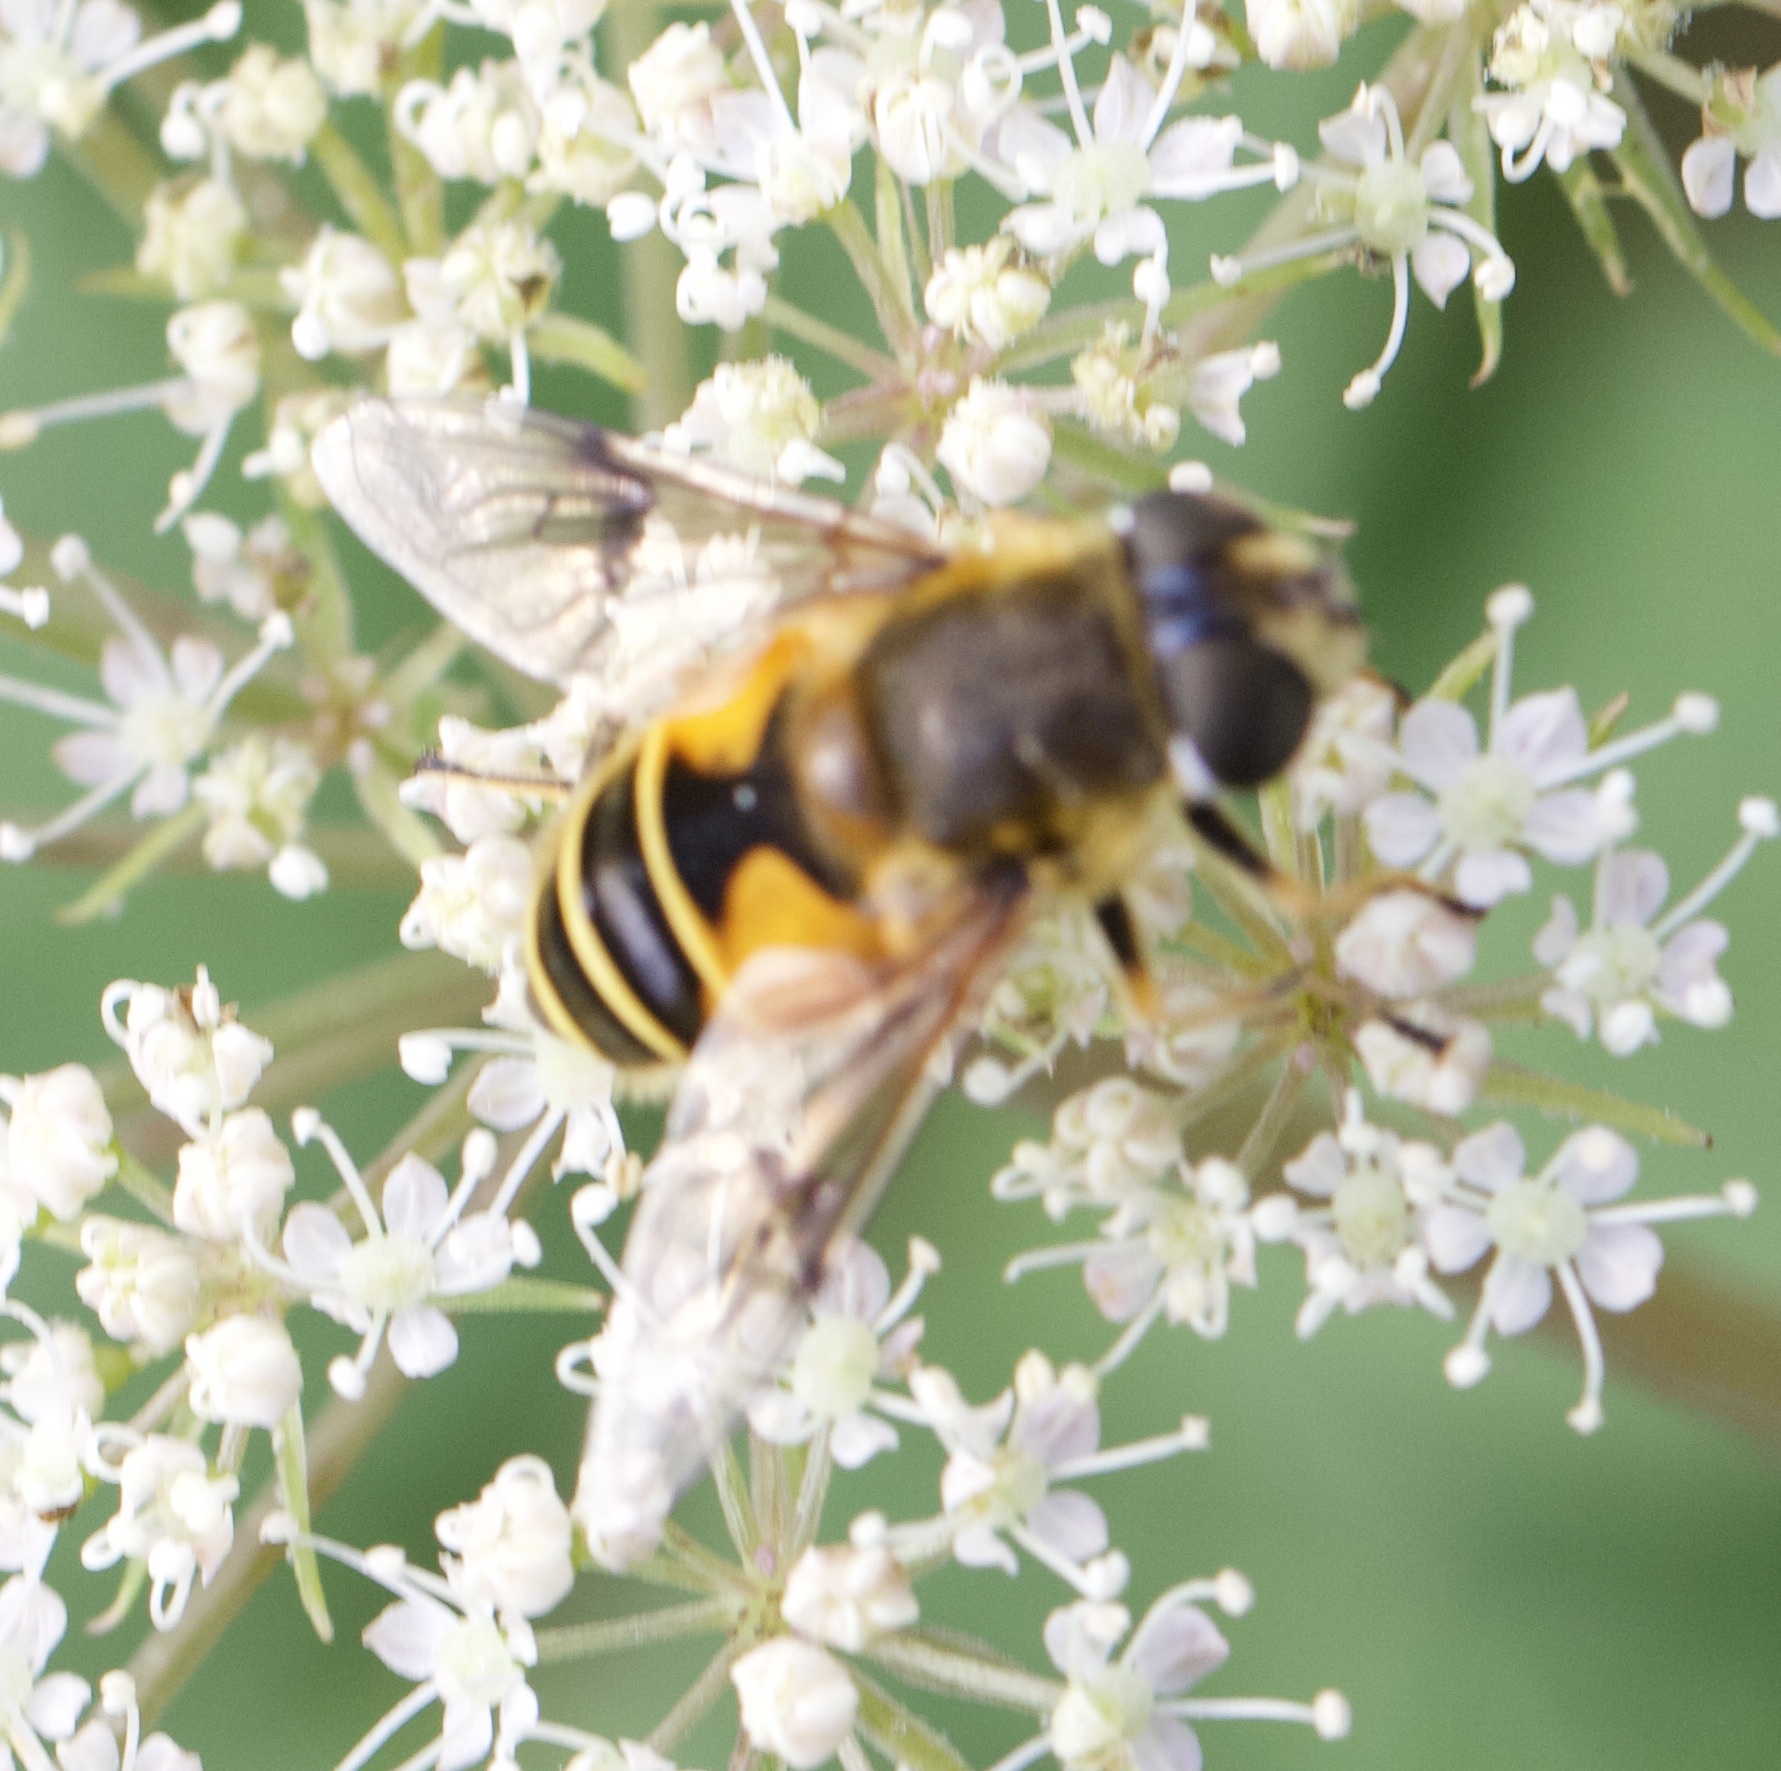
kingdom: Animalia
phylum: Arthropoda
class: Insecta
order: Diptera
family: Syrphidae
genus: Cheilosia
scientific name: Cheilosia morio
